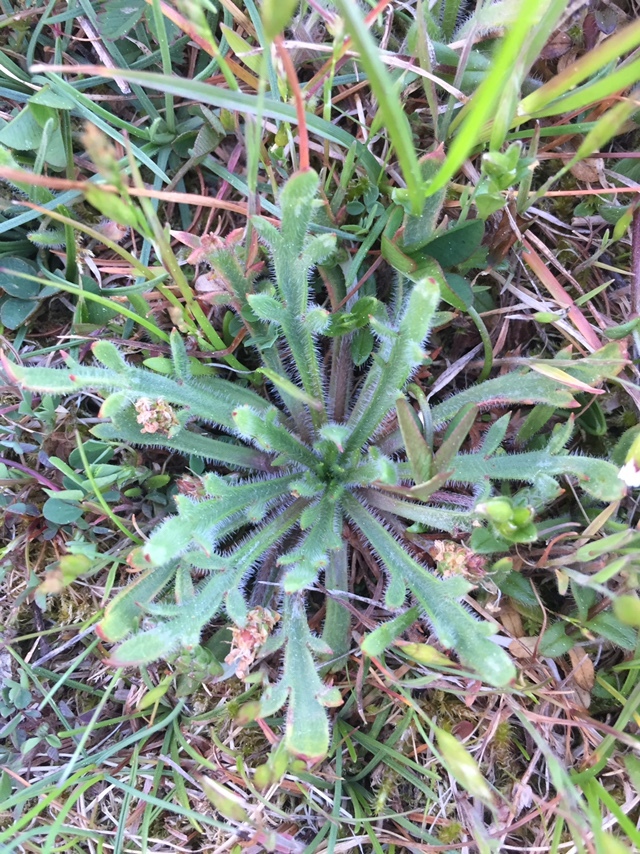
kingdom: Plantae
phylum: Tracheophyta
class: Magnoliopsida
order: Lamiales
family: Plantaginaceae
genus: Plantago
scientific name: Plantago coronopus
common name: Buck's-horn plantain
